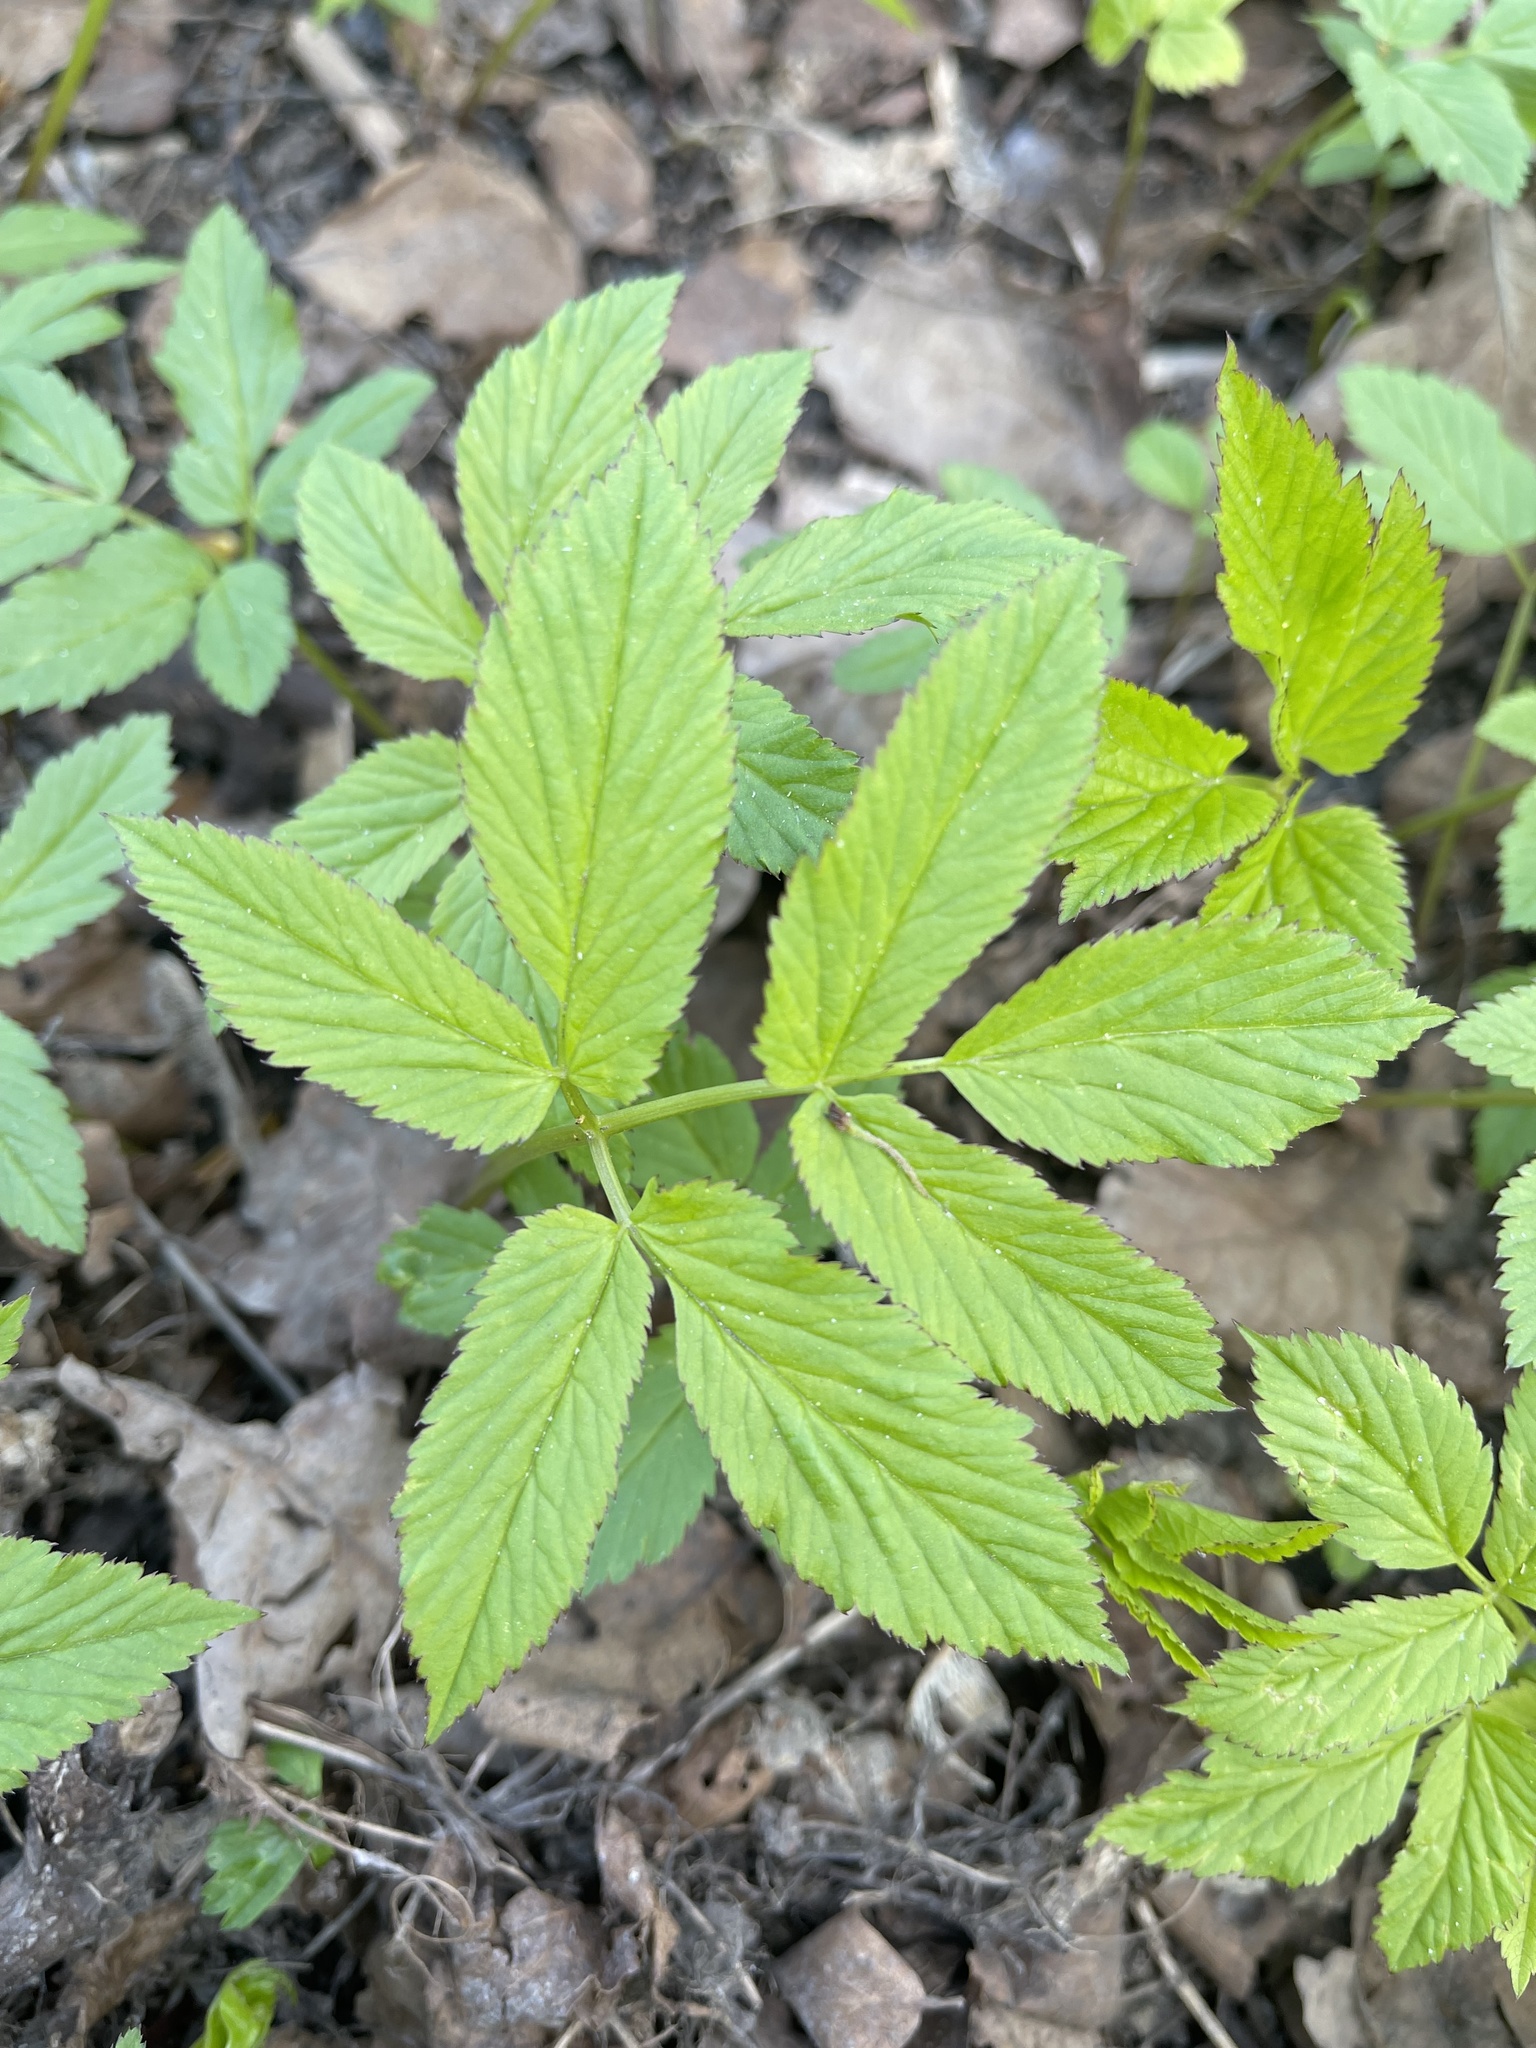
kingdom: Plantae
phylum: Tracheophyta
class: Magnoliopsida
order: Apiales
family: Apiaceae
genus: Aegopodium
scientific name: Aegopodium podagraria
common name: Ground-elder
